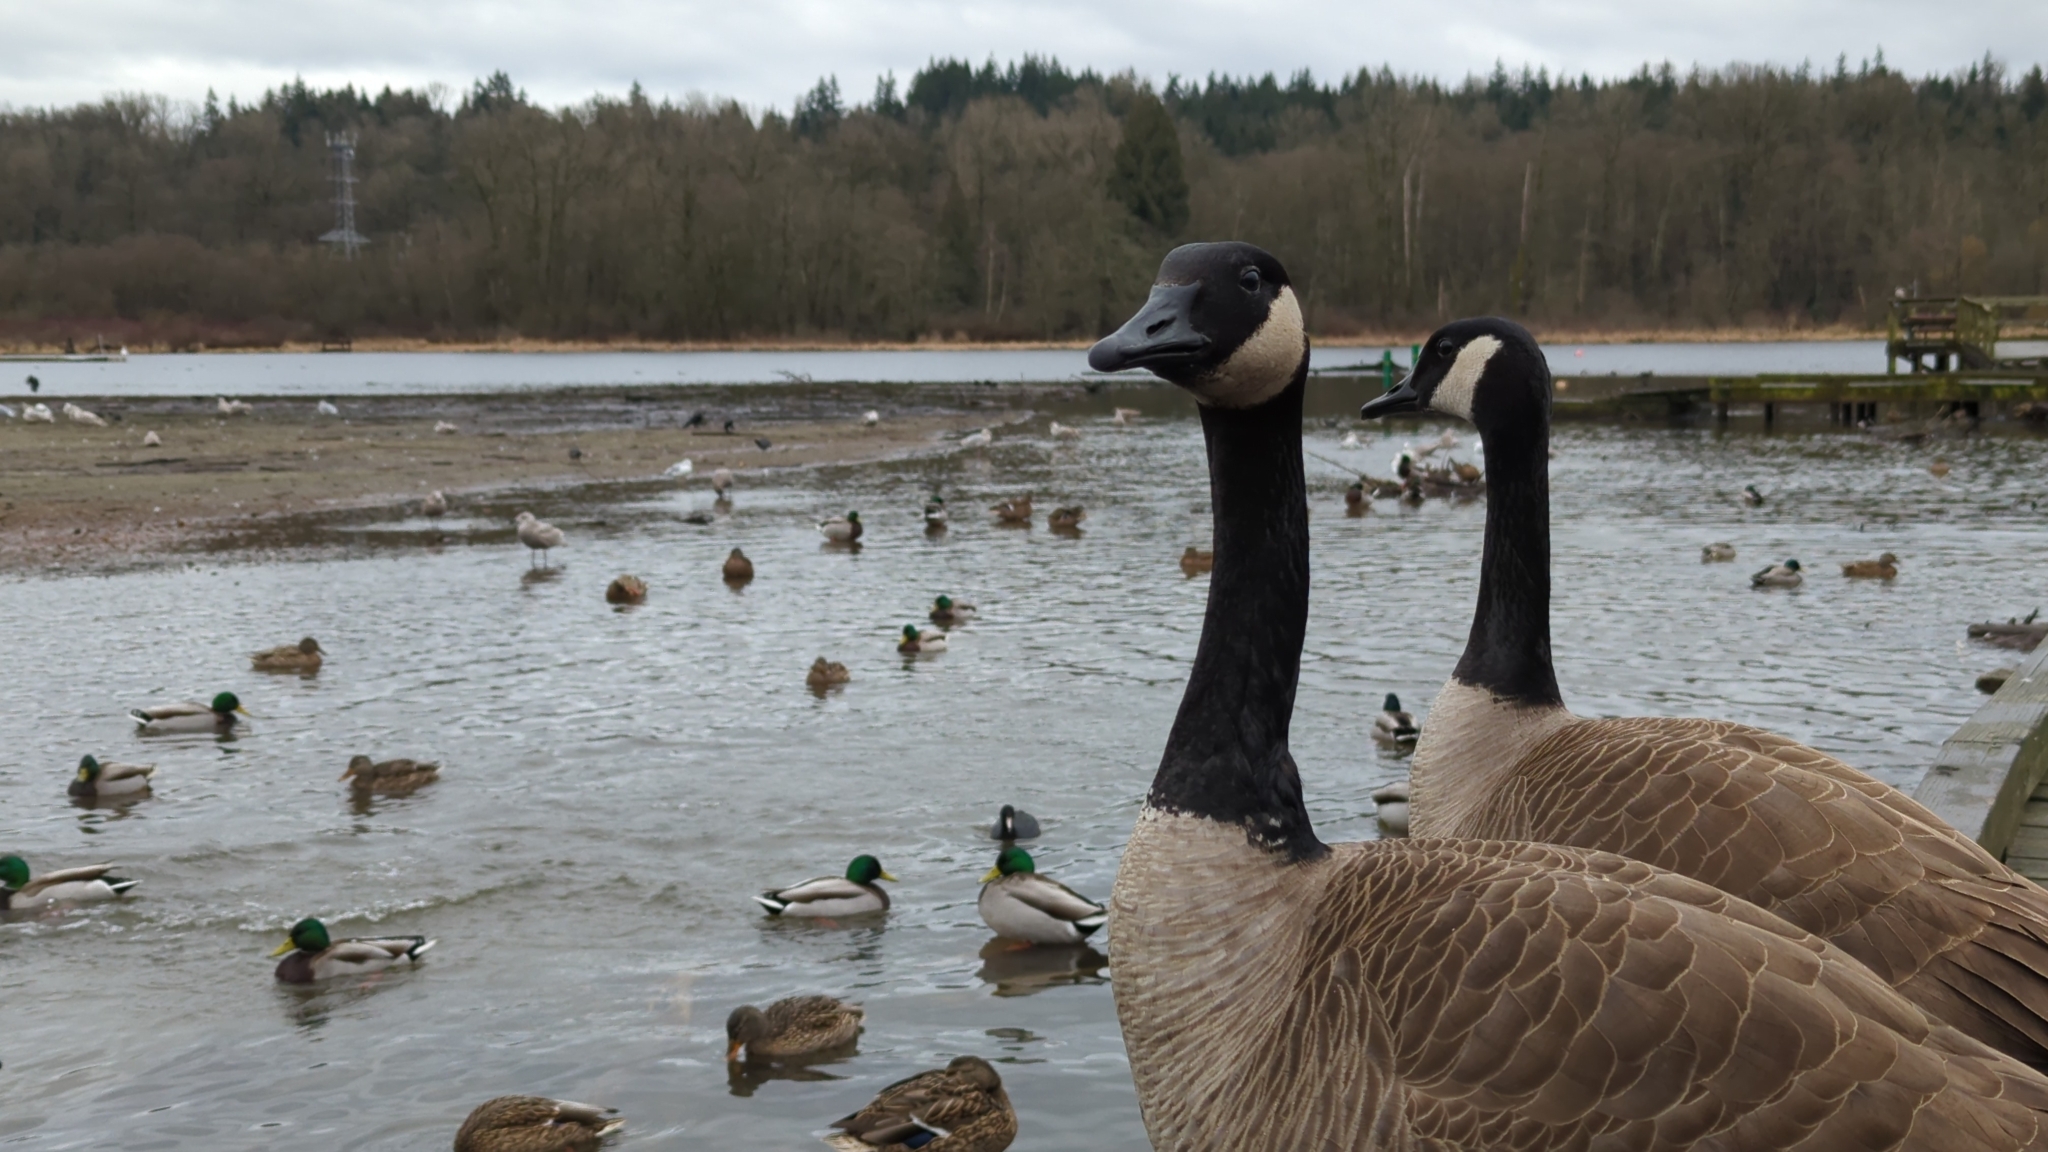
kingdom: Animalia
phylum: Chordata
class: Aves
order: Anseriformes
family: Anatidae
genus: Branta
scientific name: Branta canadensis
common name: Canada goose
